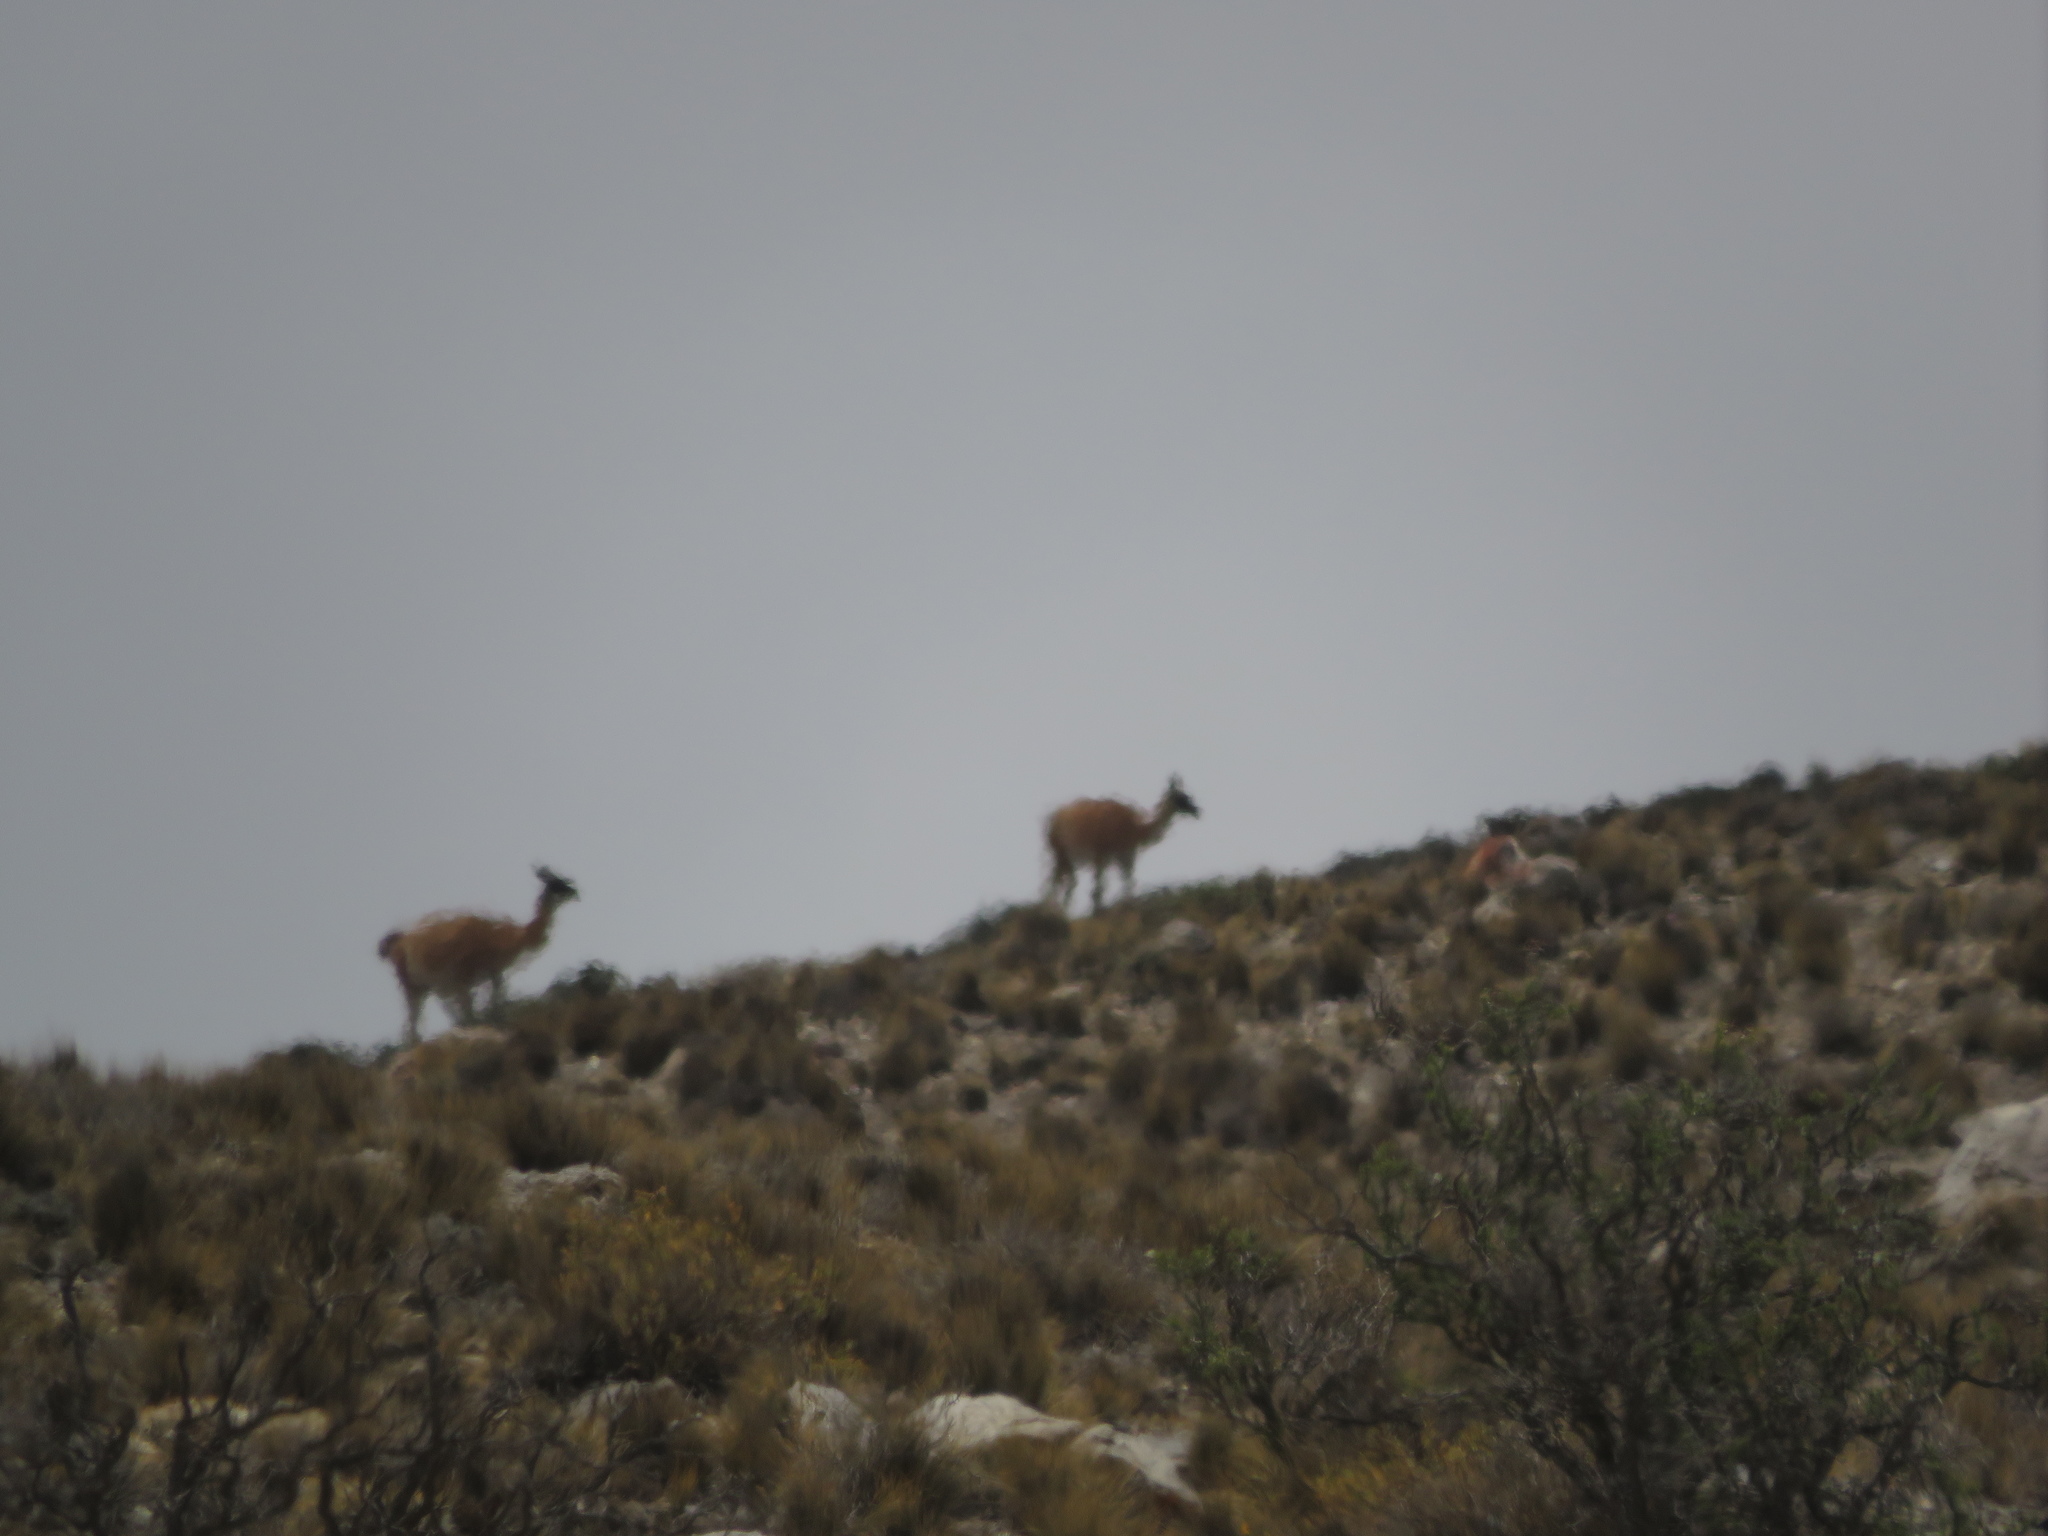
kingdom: Animalia
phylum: Chordata
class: Mammalia
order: Artiodactyla
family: Camelidae
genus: Lama
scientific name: Lama glama
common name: Llama
